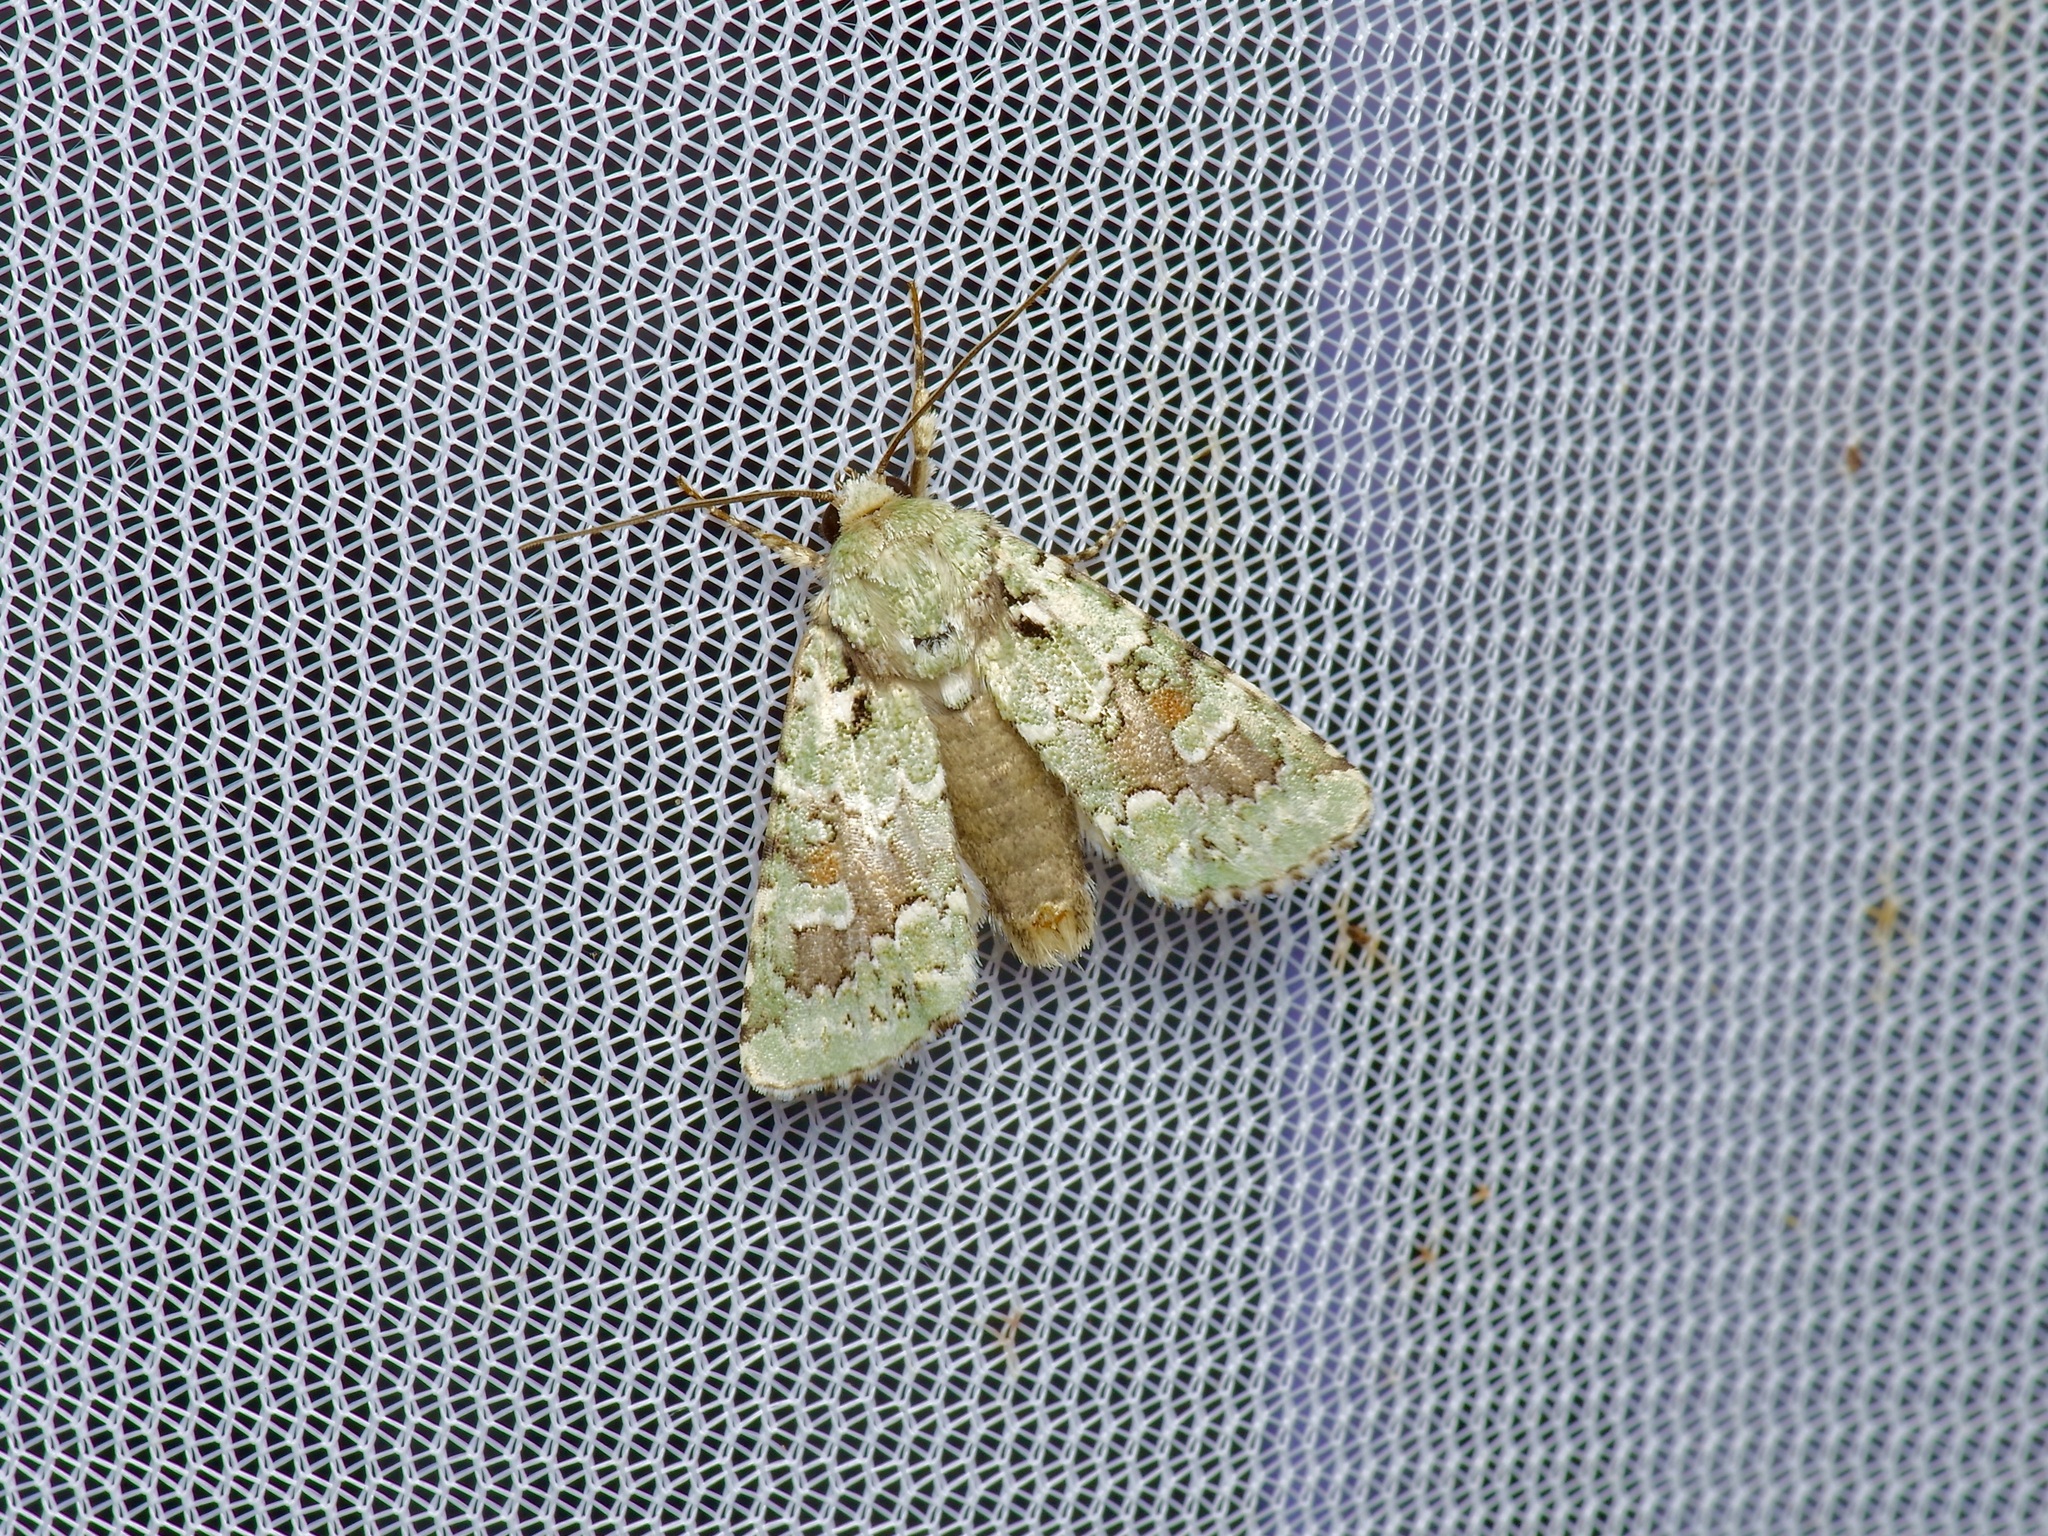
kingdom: Animalia
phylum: Arthropoda
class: Insecta
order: Lepidoptera
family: Noctuidae
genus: Lacinipolia
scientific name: Lacinipolia laudabilis
